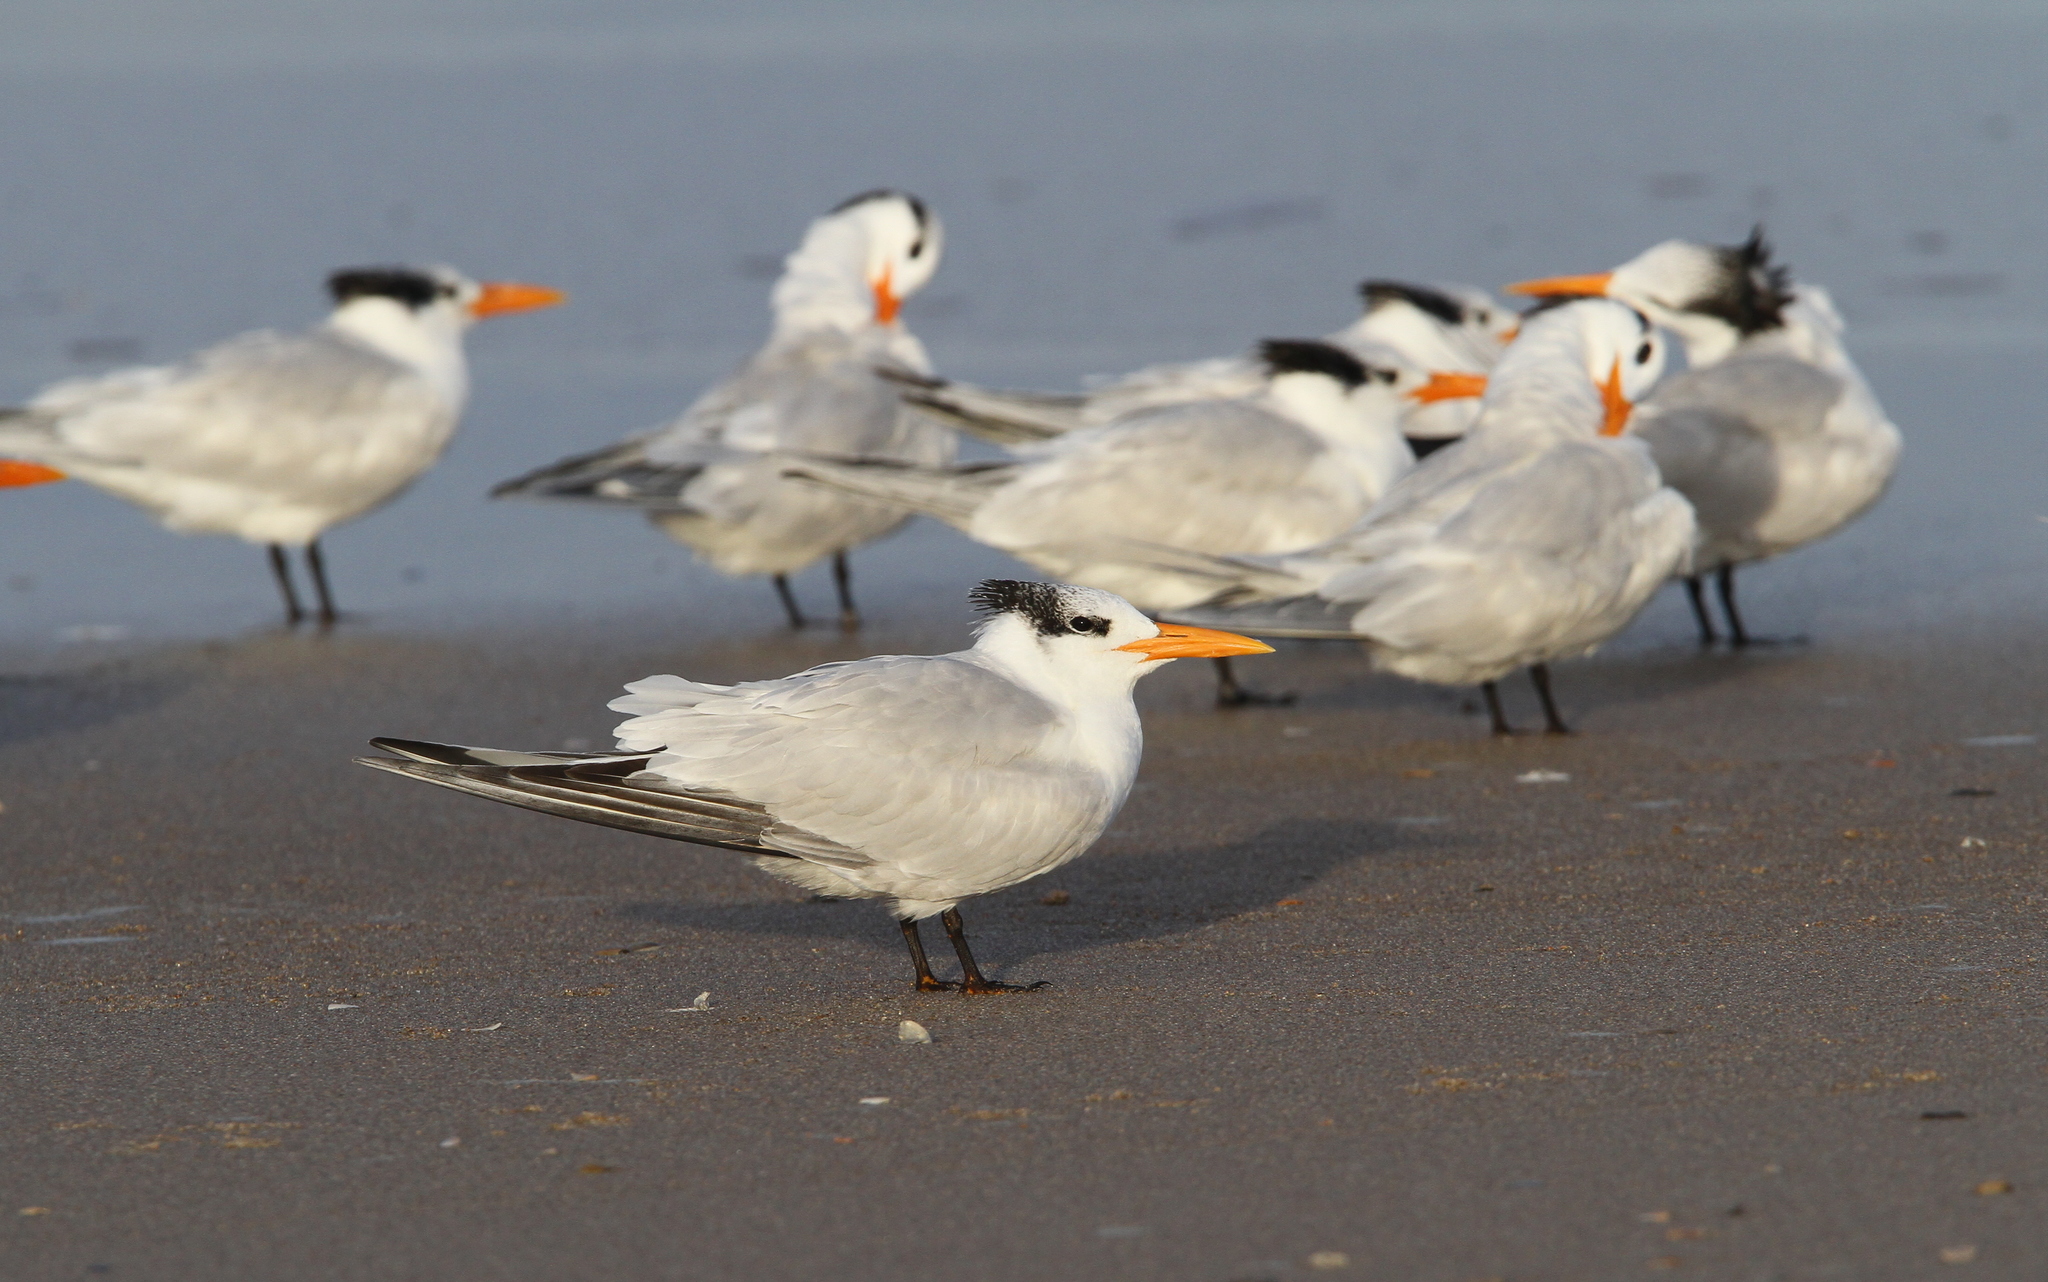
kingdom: Animalia
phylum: Chordata
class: Aves
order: Charadriiformes
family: Laridae
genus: Thalasseus
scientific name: Thalasseus maximus
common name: Royal tern
